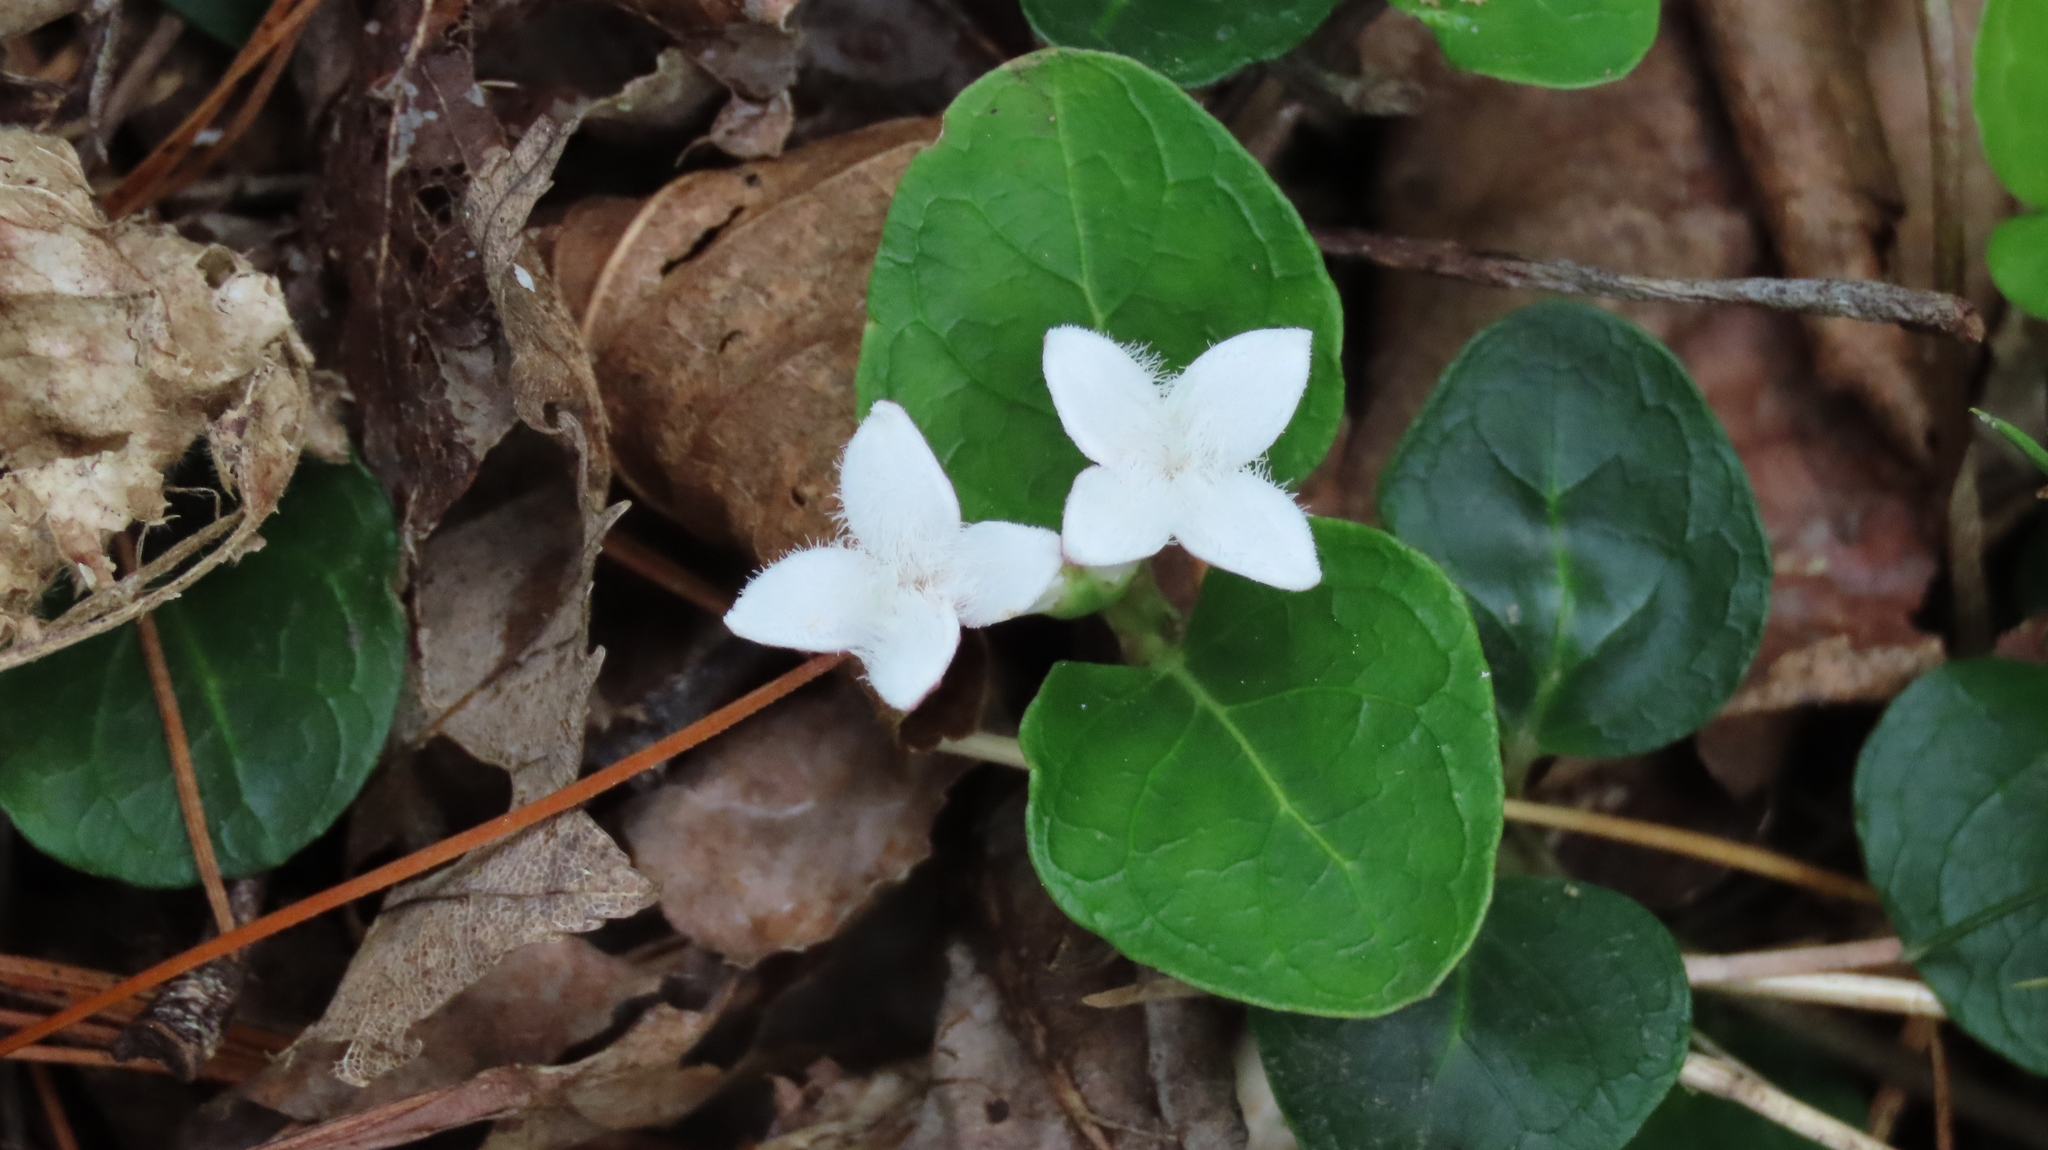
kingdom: Plantae
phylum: Tracheophyta
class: Magnoliopsida
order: Gentianales
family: Rubiaceae
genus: Mitchella
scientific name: Mitchella repens
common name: Partridge-berry
